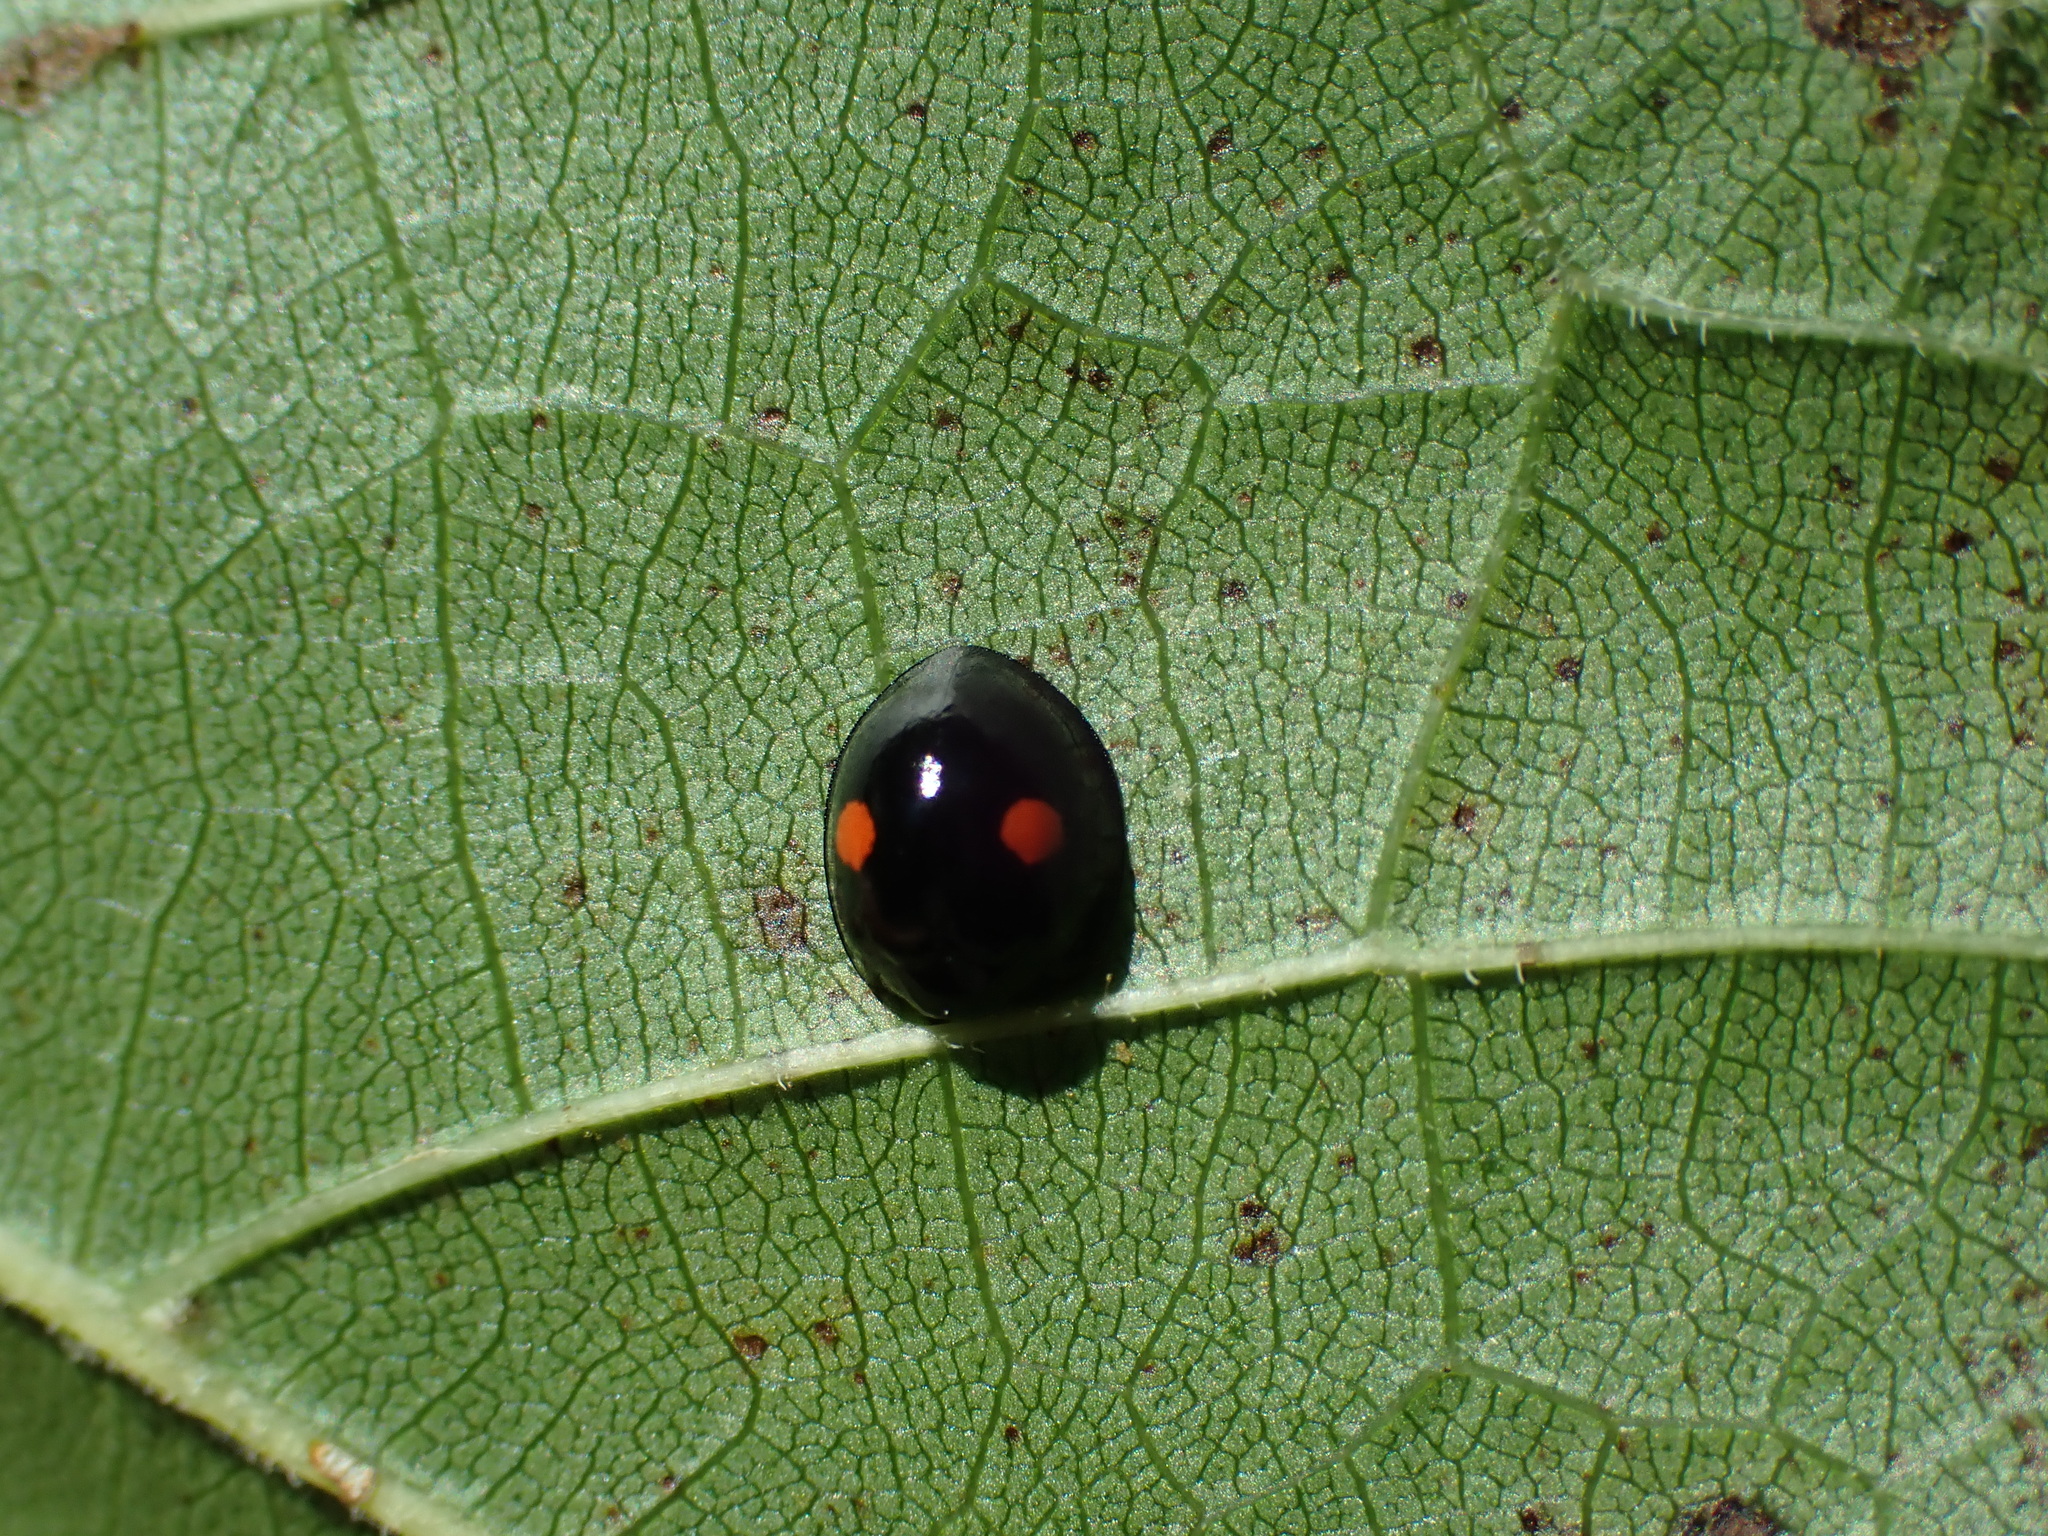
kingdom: Animalia
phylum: Arthropoda
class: Insecta
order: Coleoptera
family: Coccinellidae
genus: Chilocorus
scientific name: Chilocorus stigma
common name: Twicestabbed lady beetle
